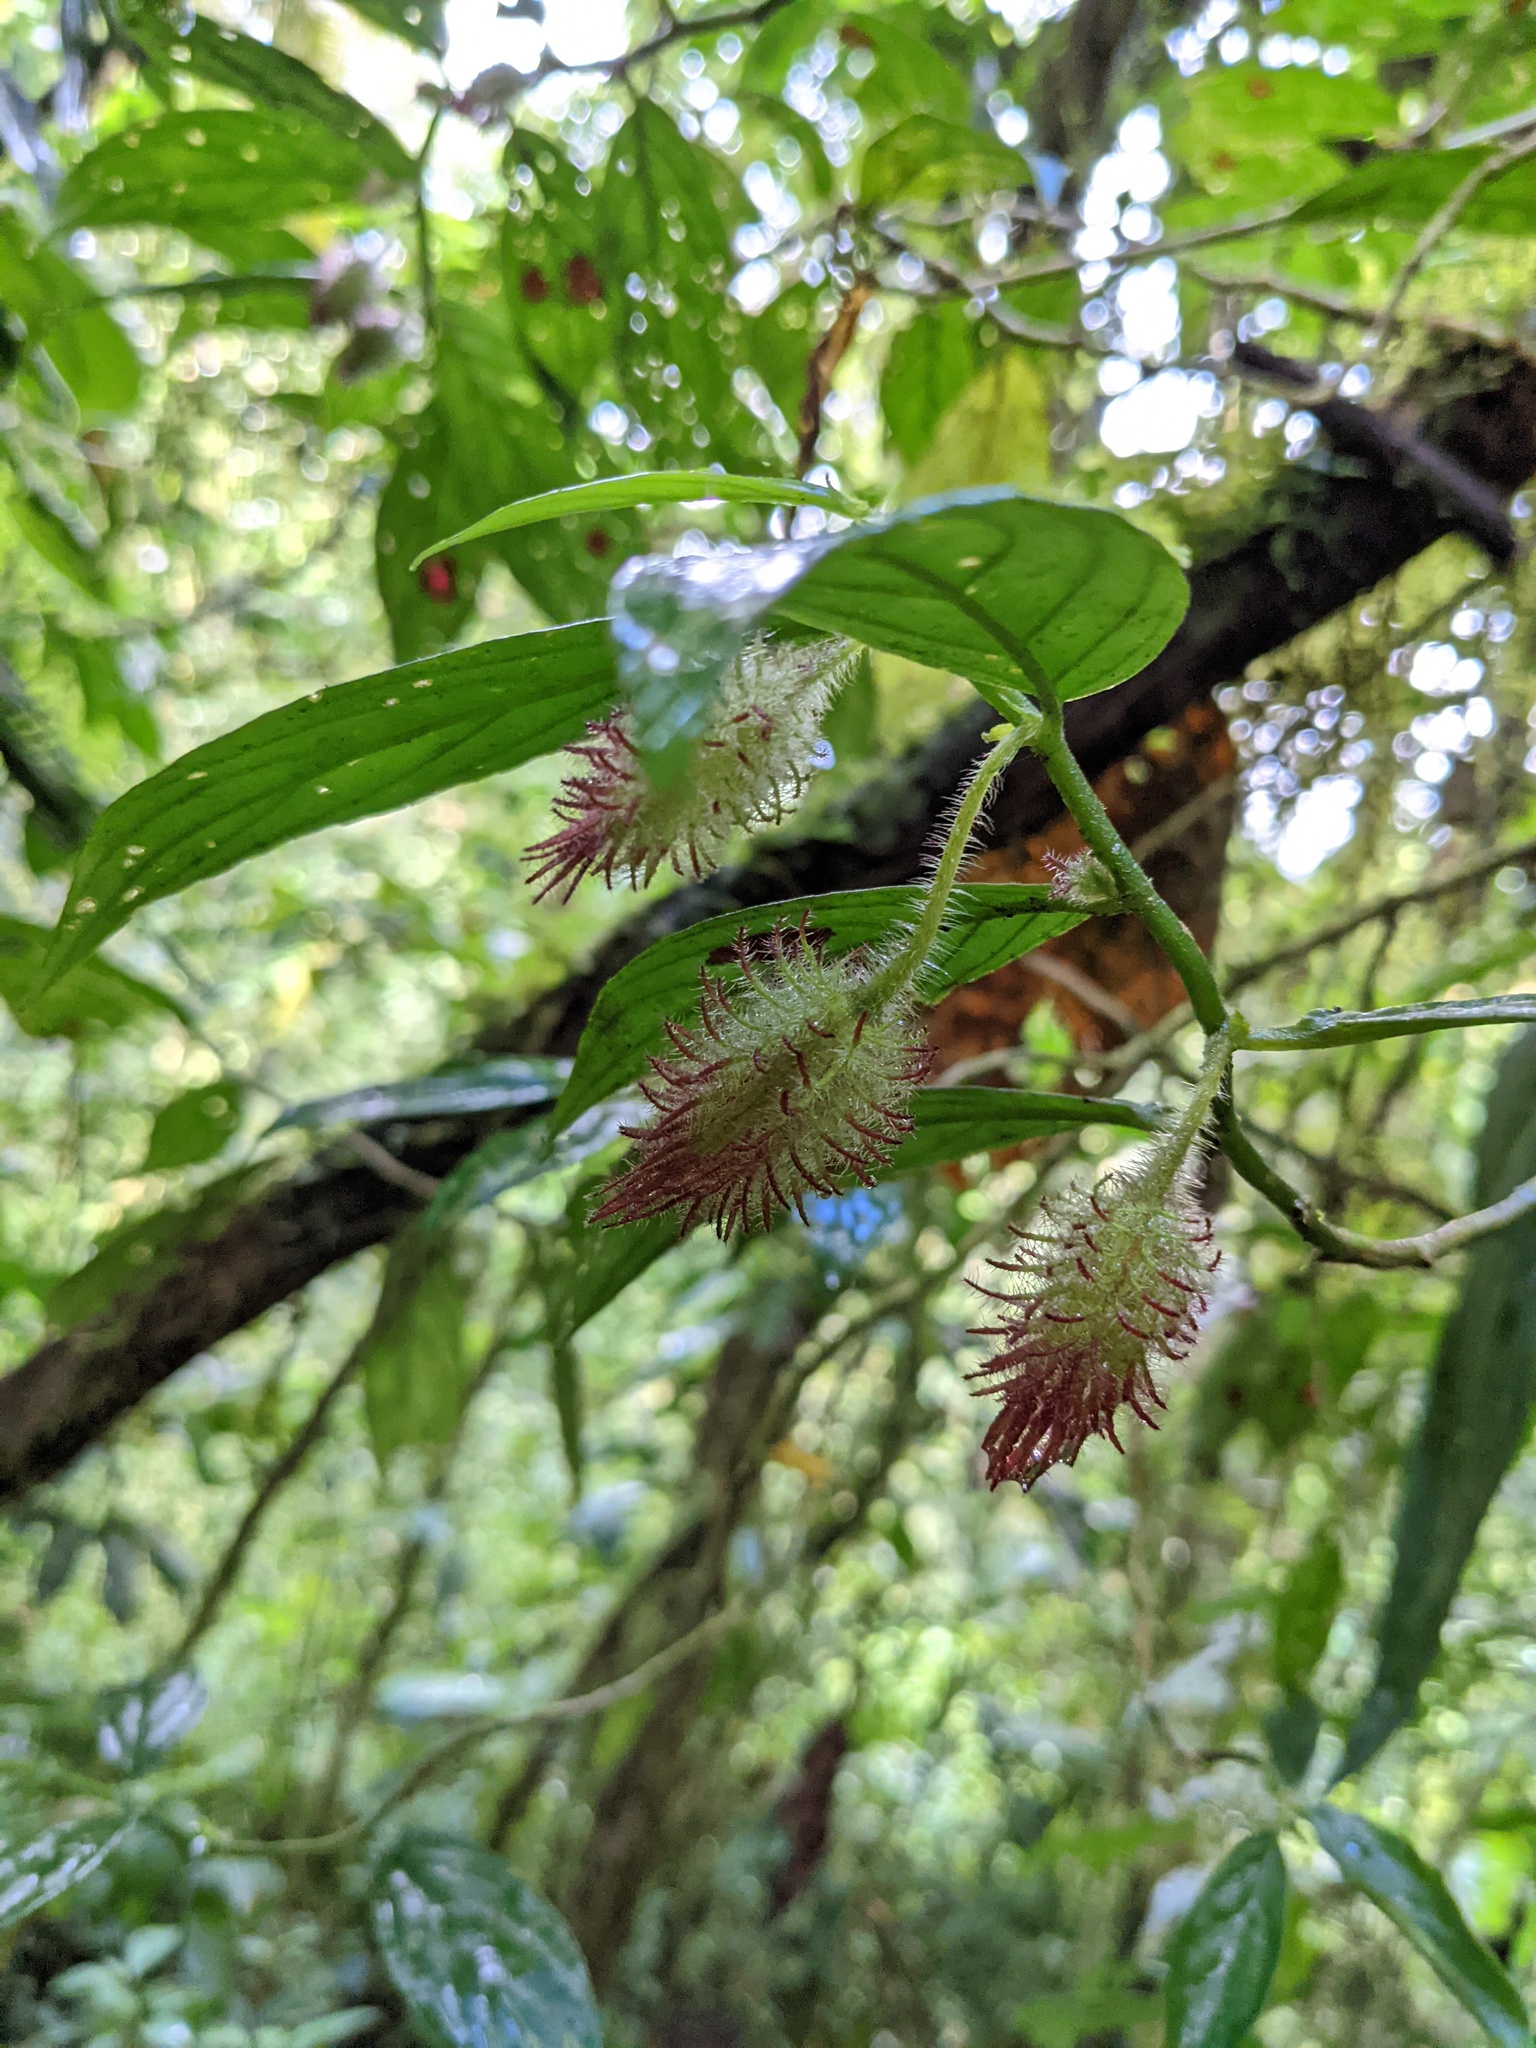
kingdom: Plantae
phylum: Tracheophyta
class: Magnoliopsida
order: Lamiales
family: Gesneriaceae
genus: Columnea
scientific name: Columnea sanguinolenta
